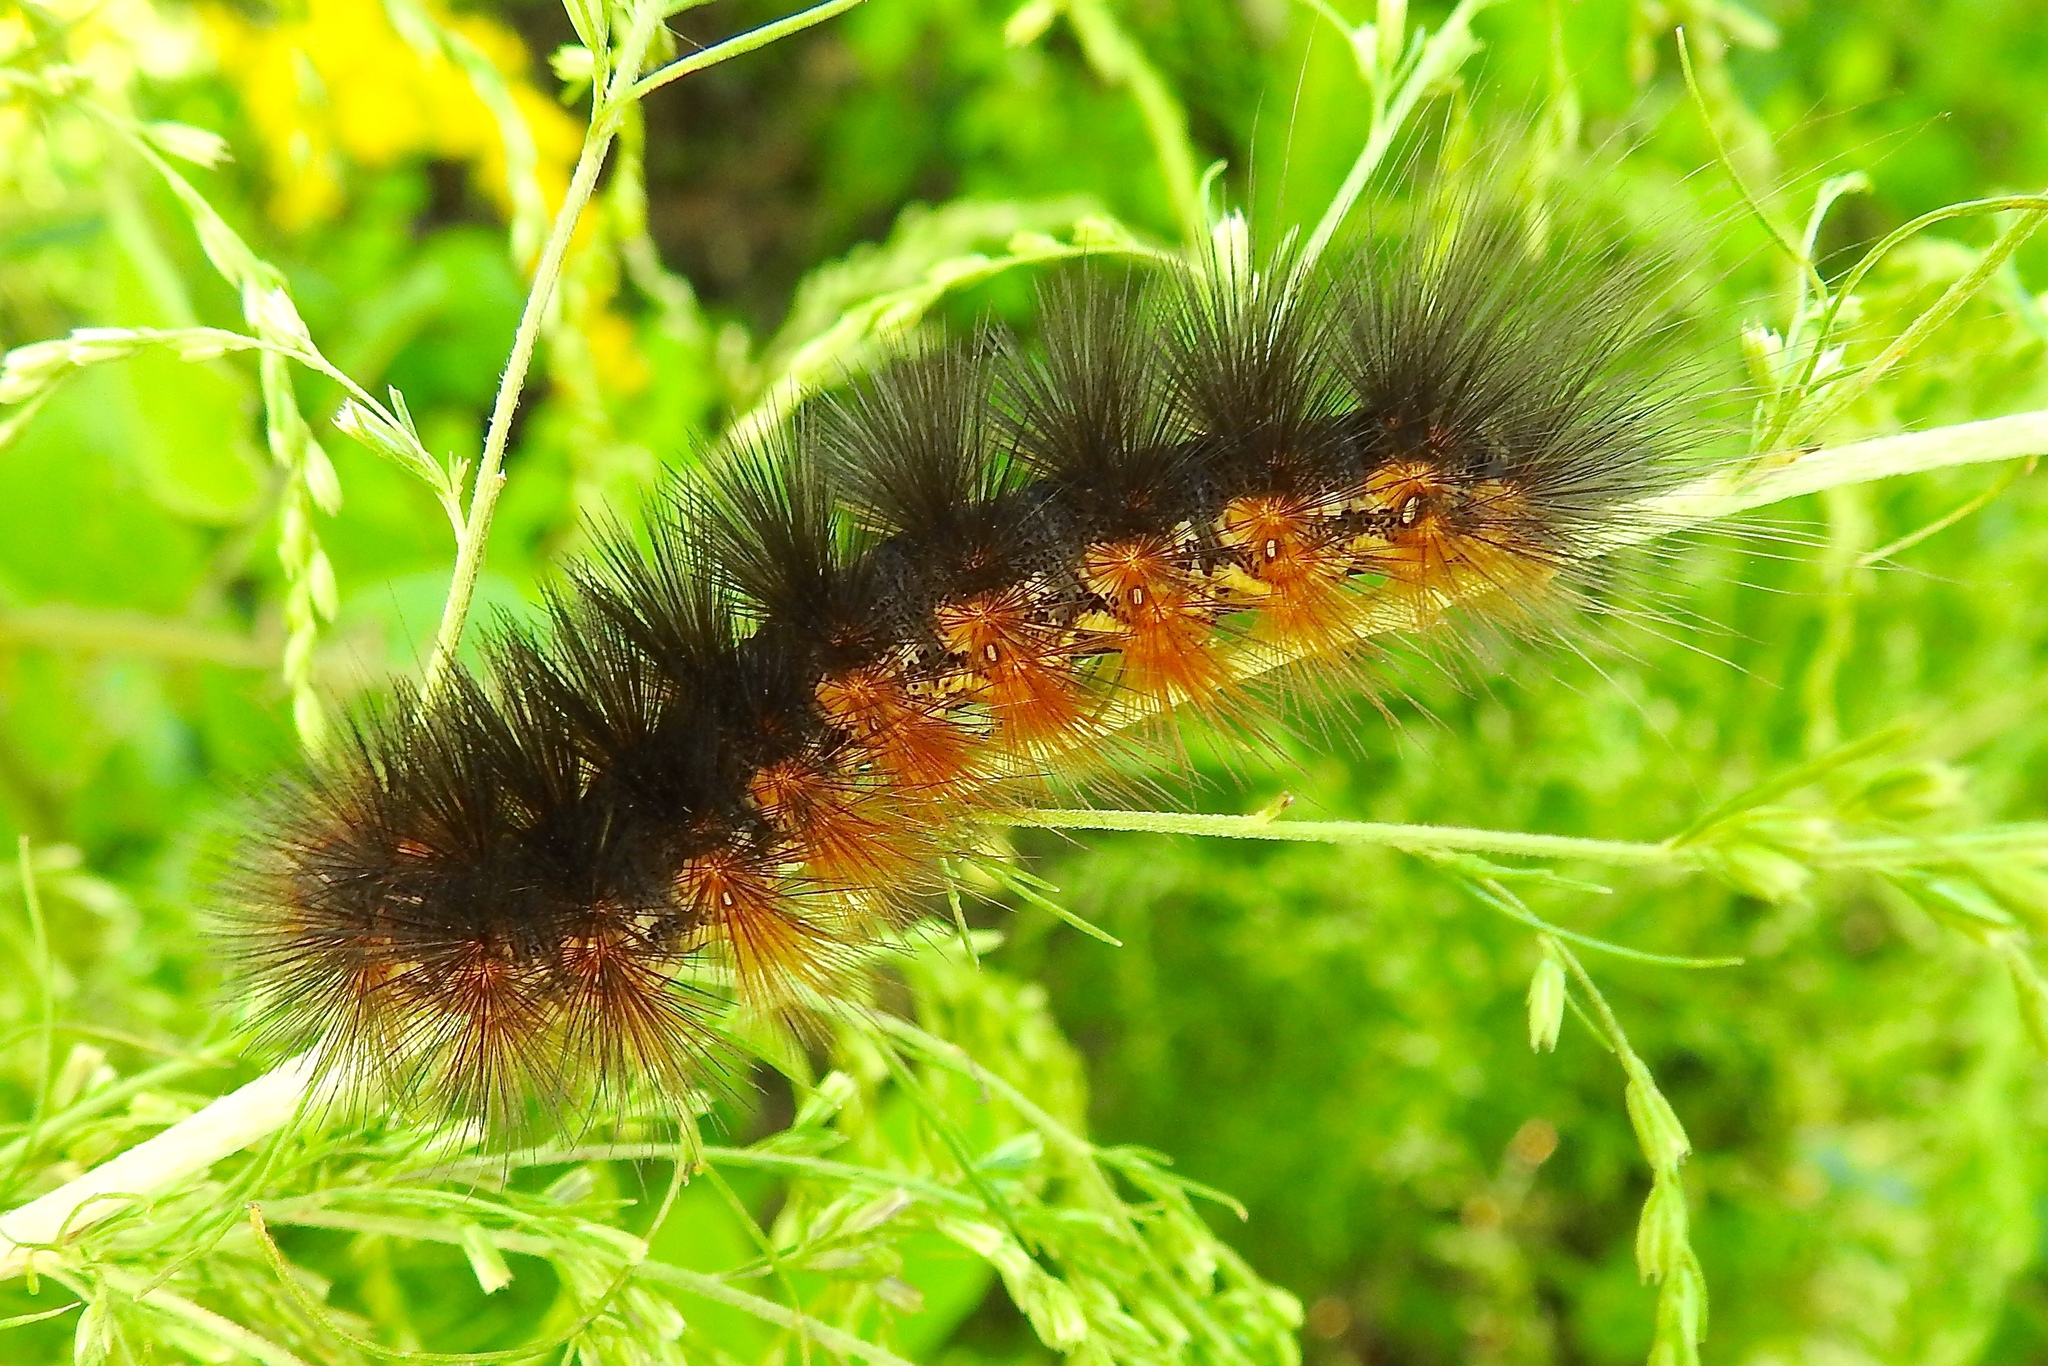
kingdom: Animalia
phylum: Arthropoda
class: Insecta
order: Lepidoptera
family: Erebidae
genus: Estigmene
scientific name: Estigmene acrea
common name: Salt marsh moth
